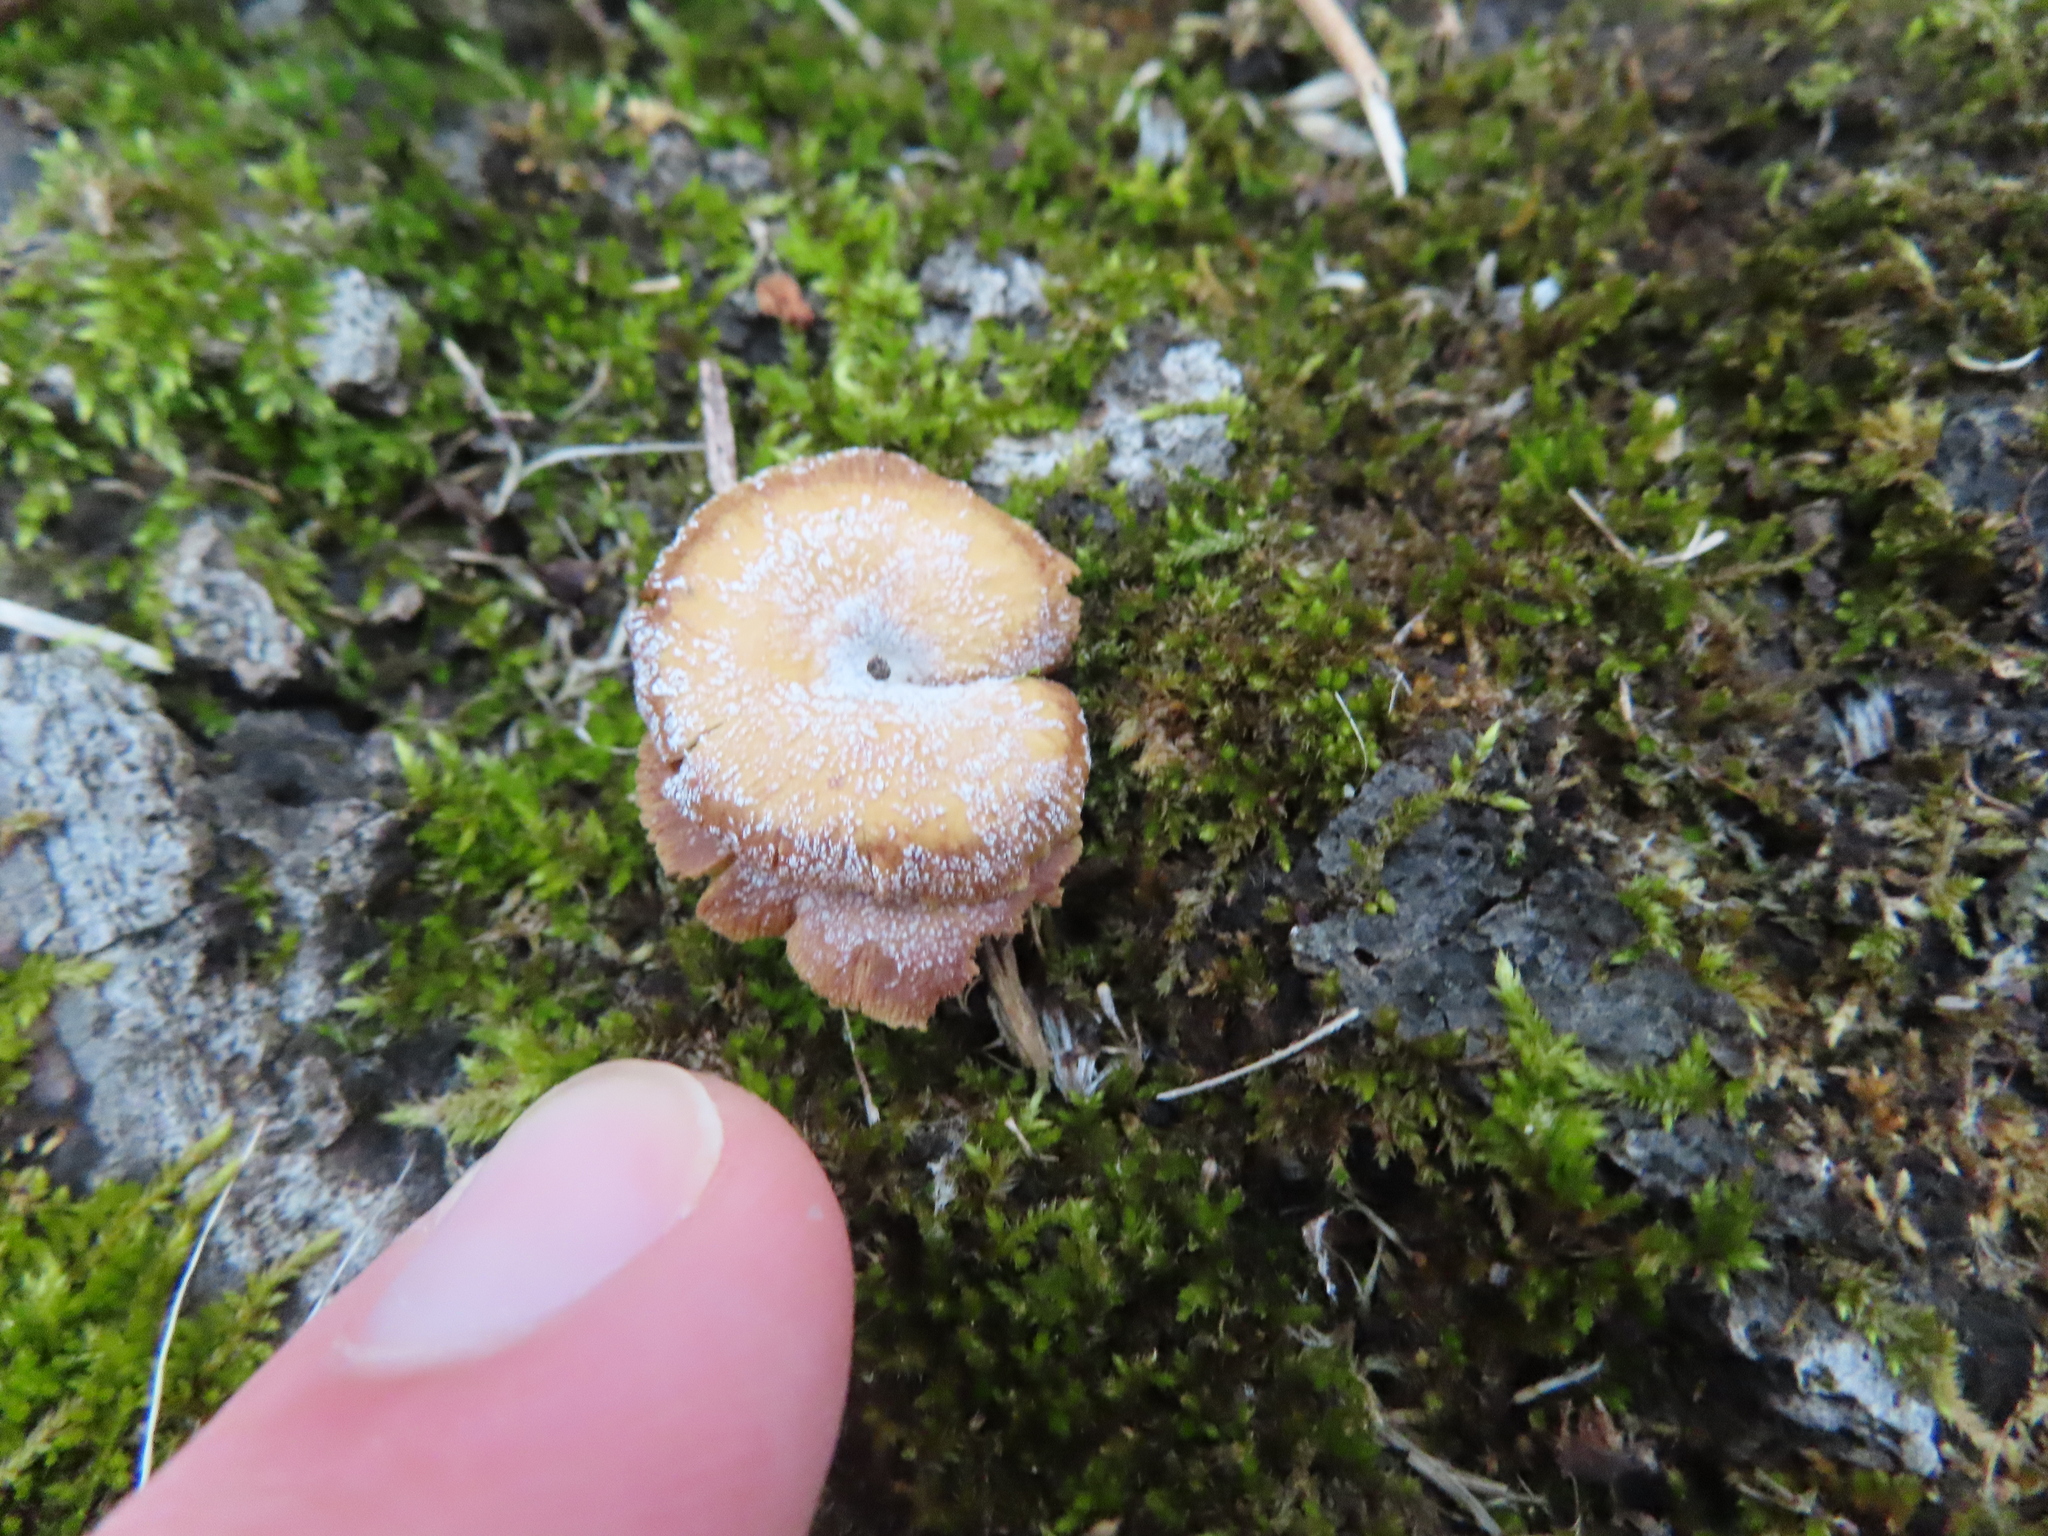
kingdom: Fungi
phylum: Basidiomycota
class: Agaricomycetes
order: Agaricales
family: Mycenaceae
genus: Panellus
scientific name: Panellus stipticus
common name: Bitter oysterling
